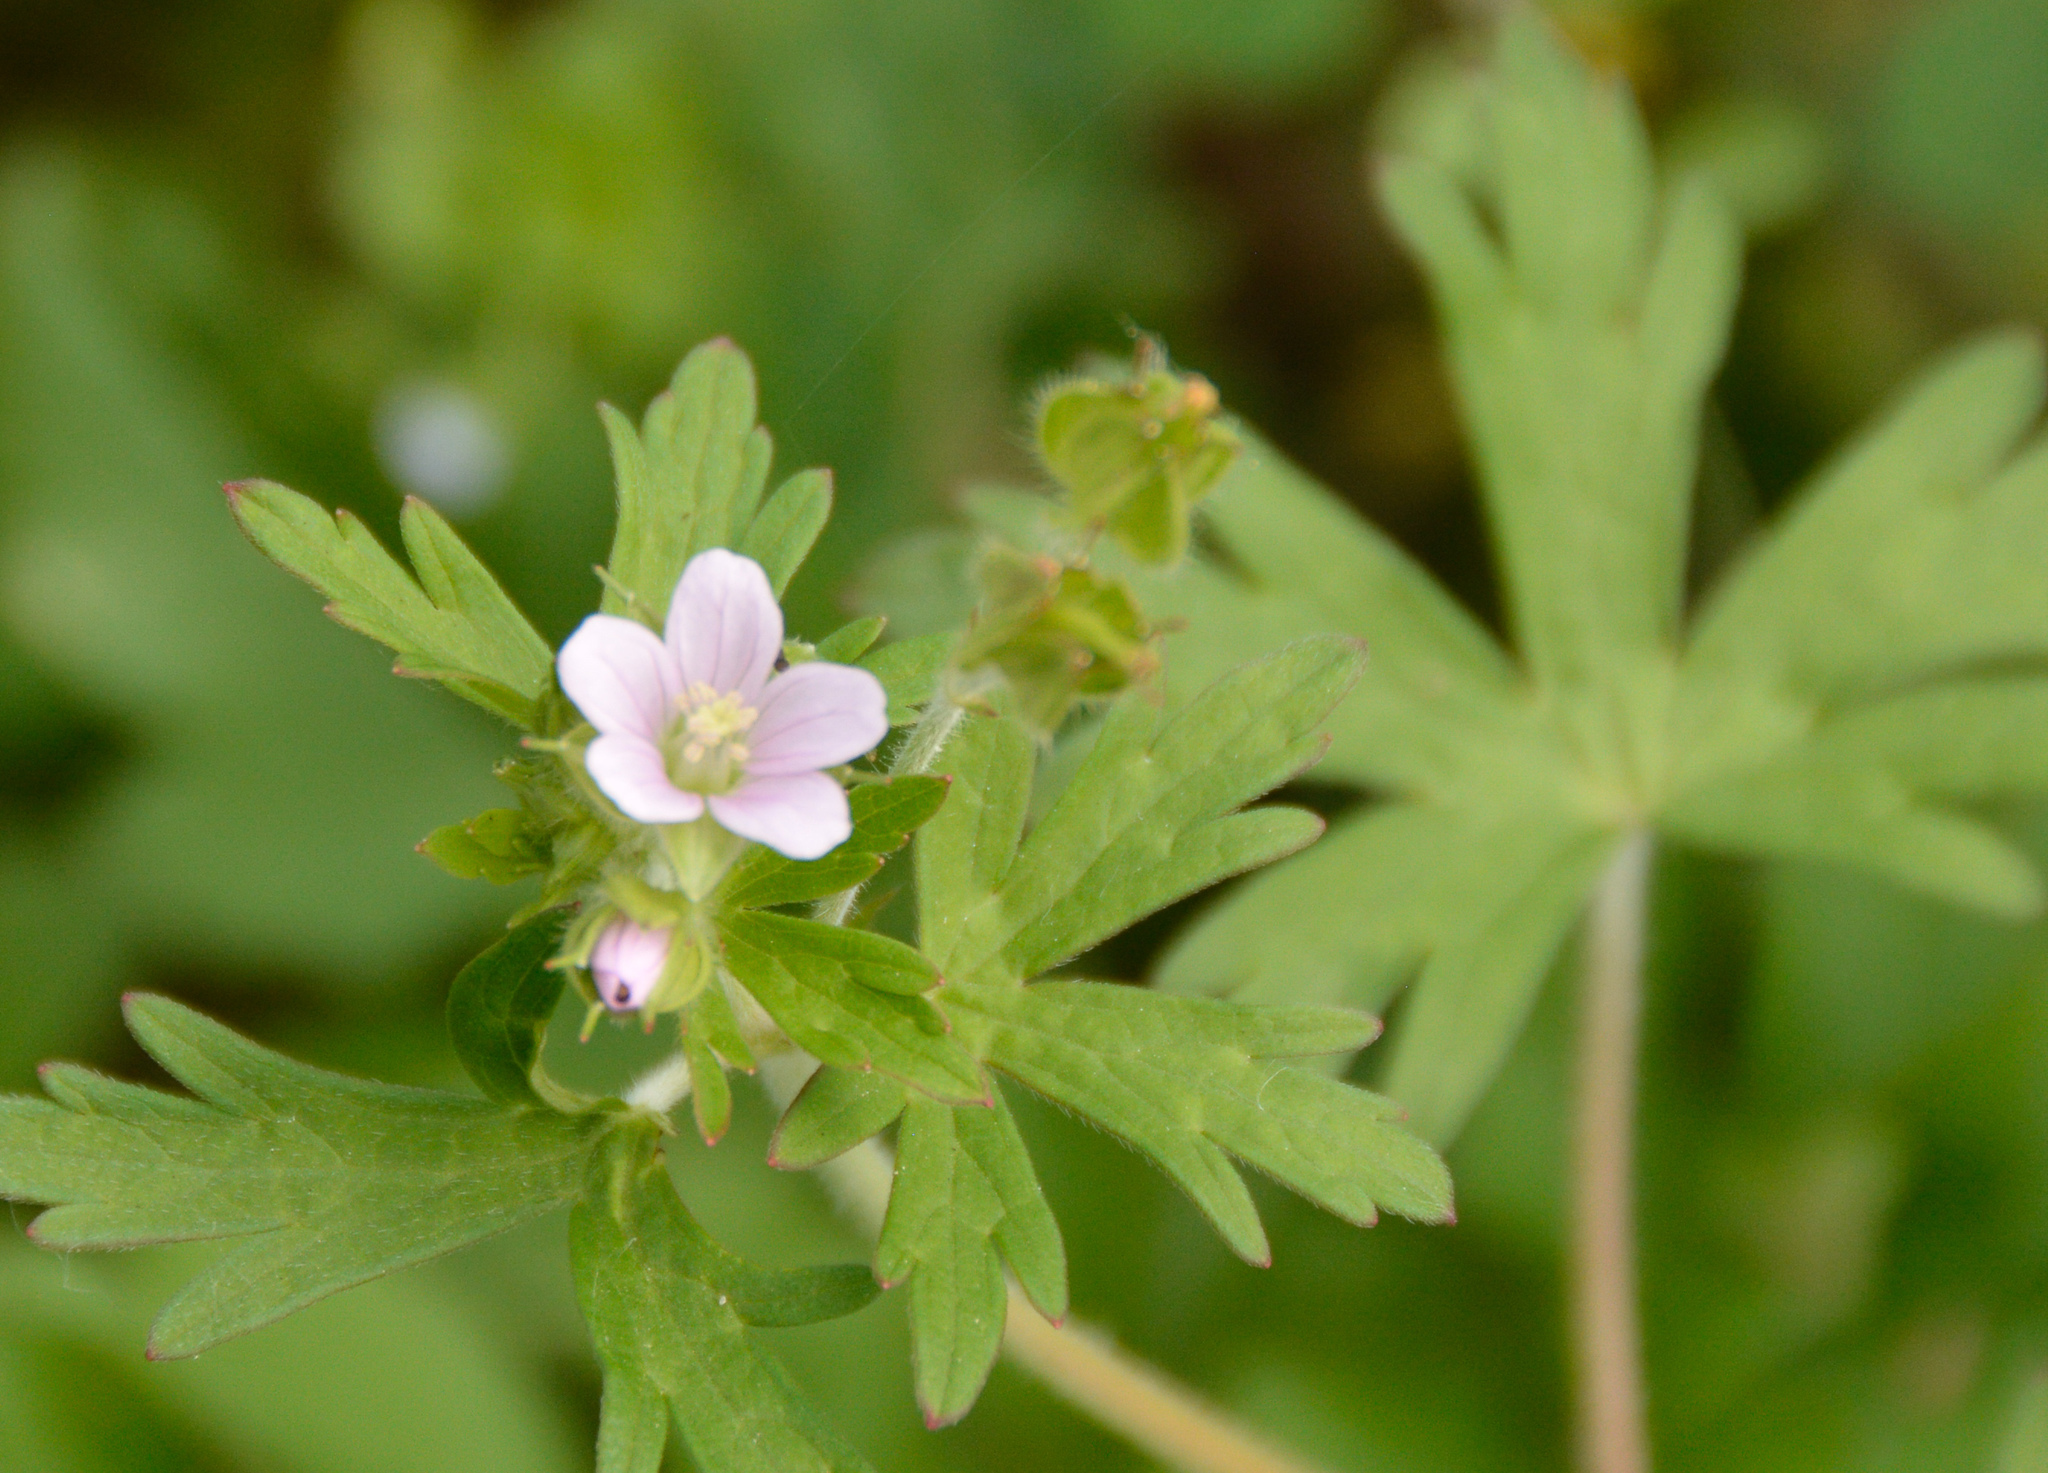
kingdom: Plantae
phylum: Tracheophyta
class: Magnoliopsida
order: Geraniales
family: Geraniaceae
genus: Geranium
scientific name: Geranium carolinianum
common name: Carolina crane's-bill
